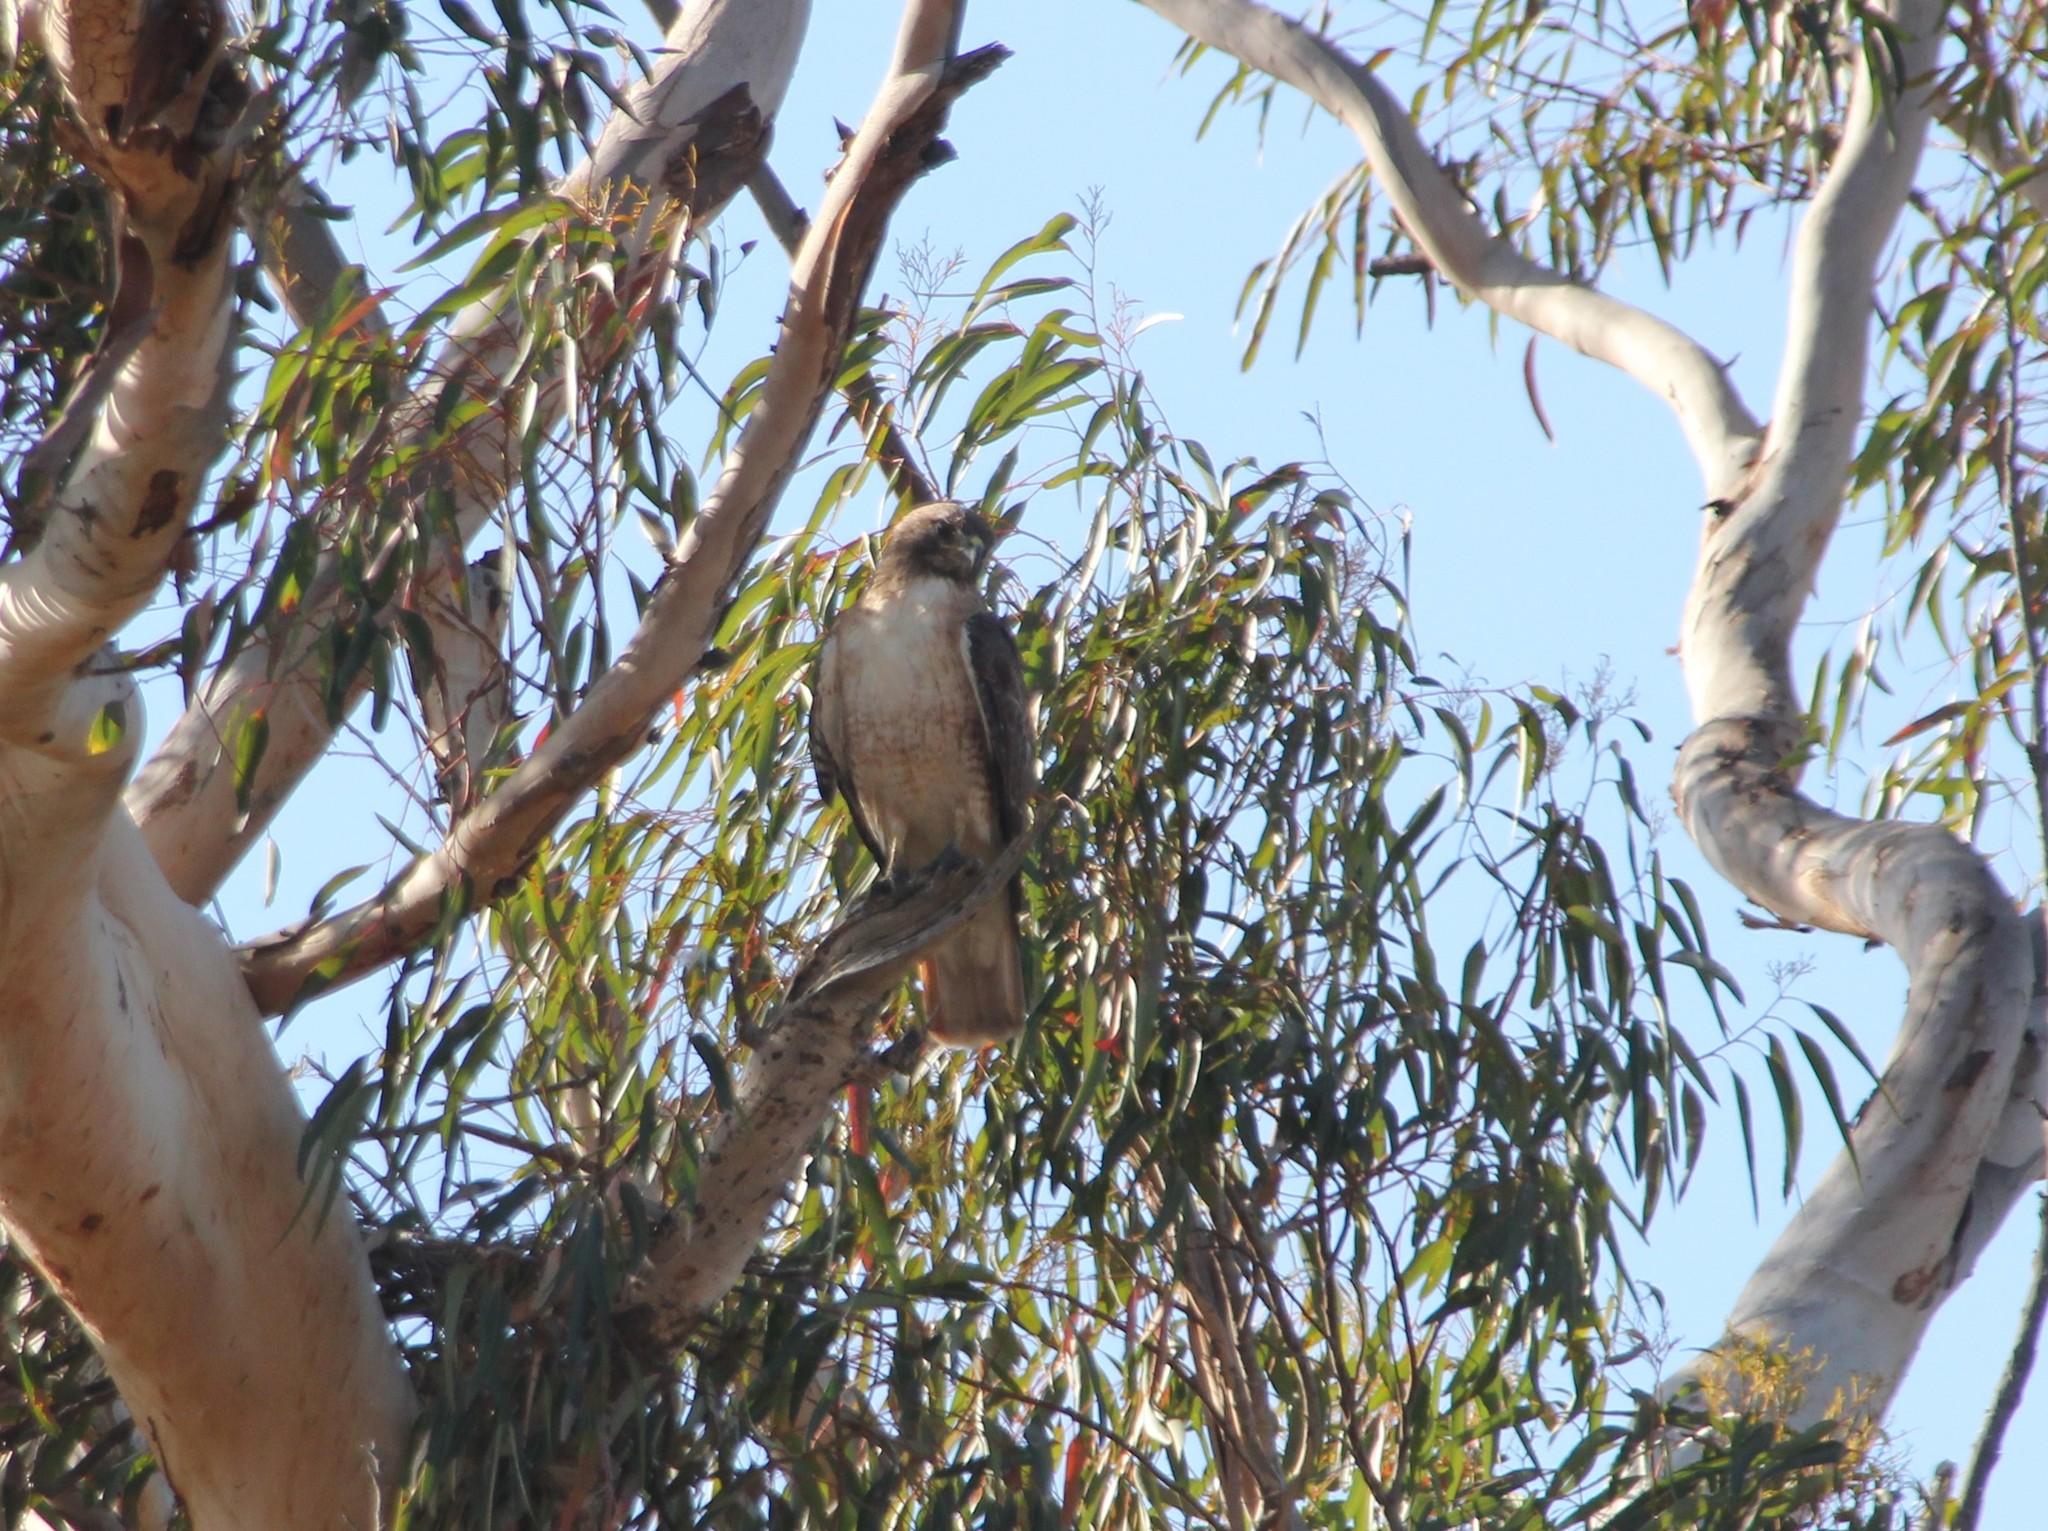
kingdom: Animalia
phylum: Chordata
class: Aves
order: Accipitriformes
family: Accipitridae
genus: Buteo
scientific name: Buteo jamaicensis
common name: Red-tailed hawk
